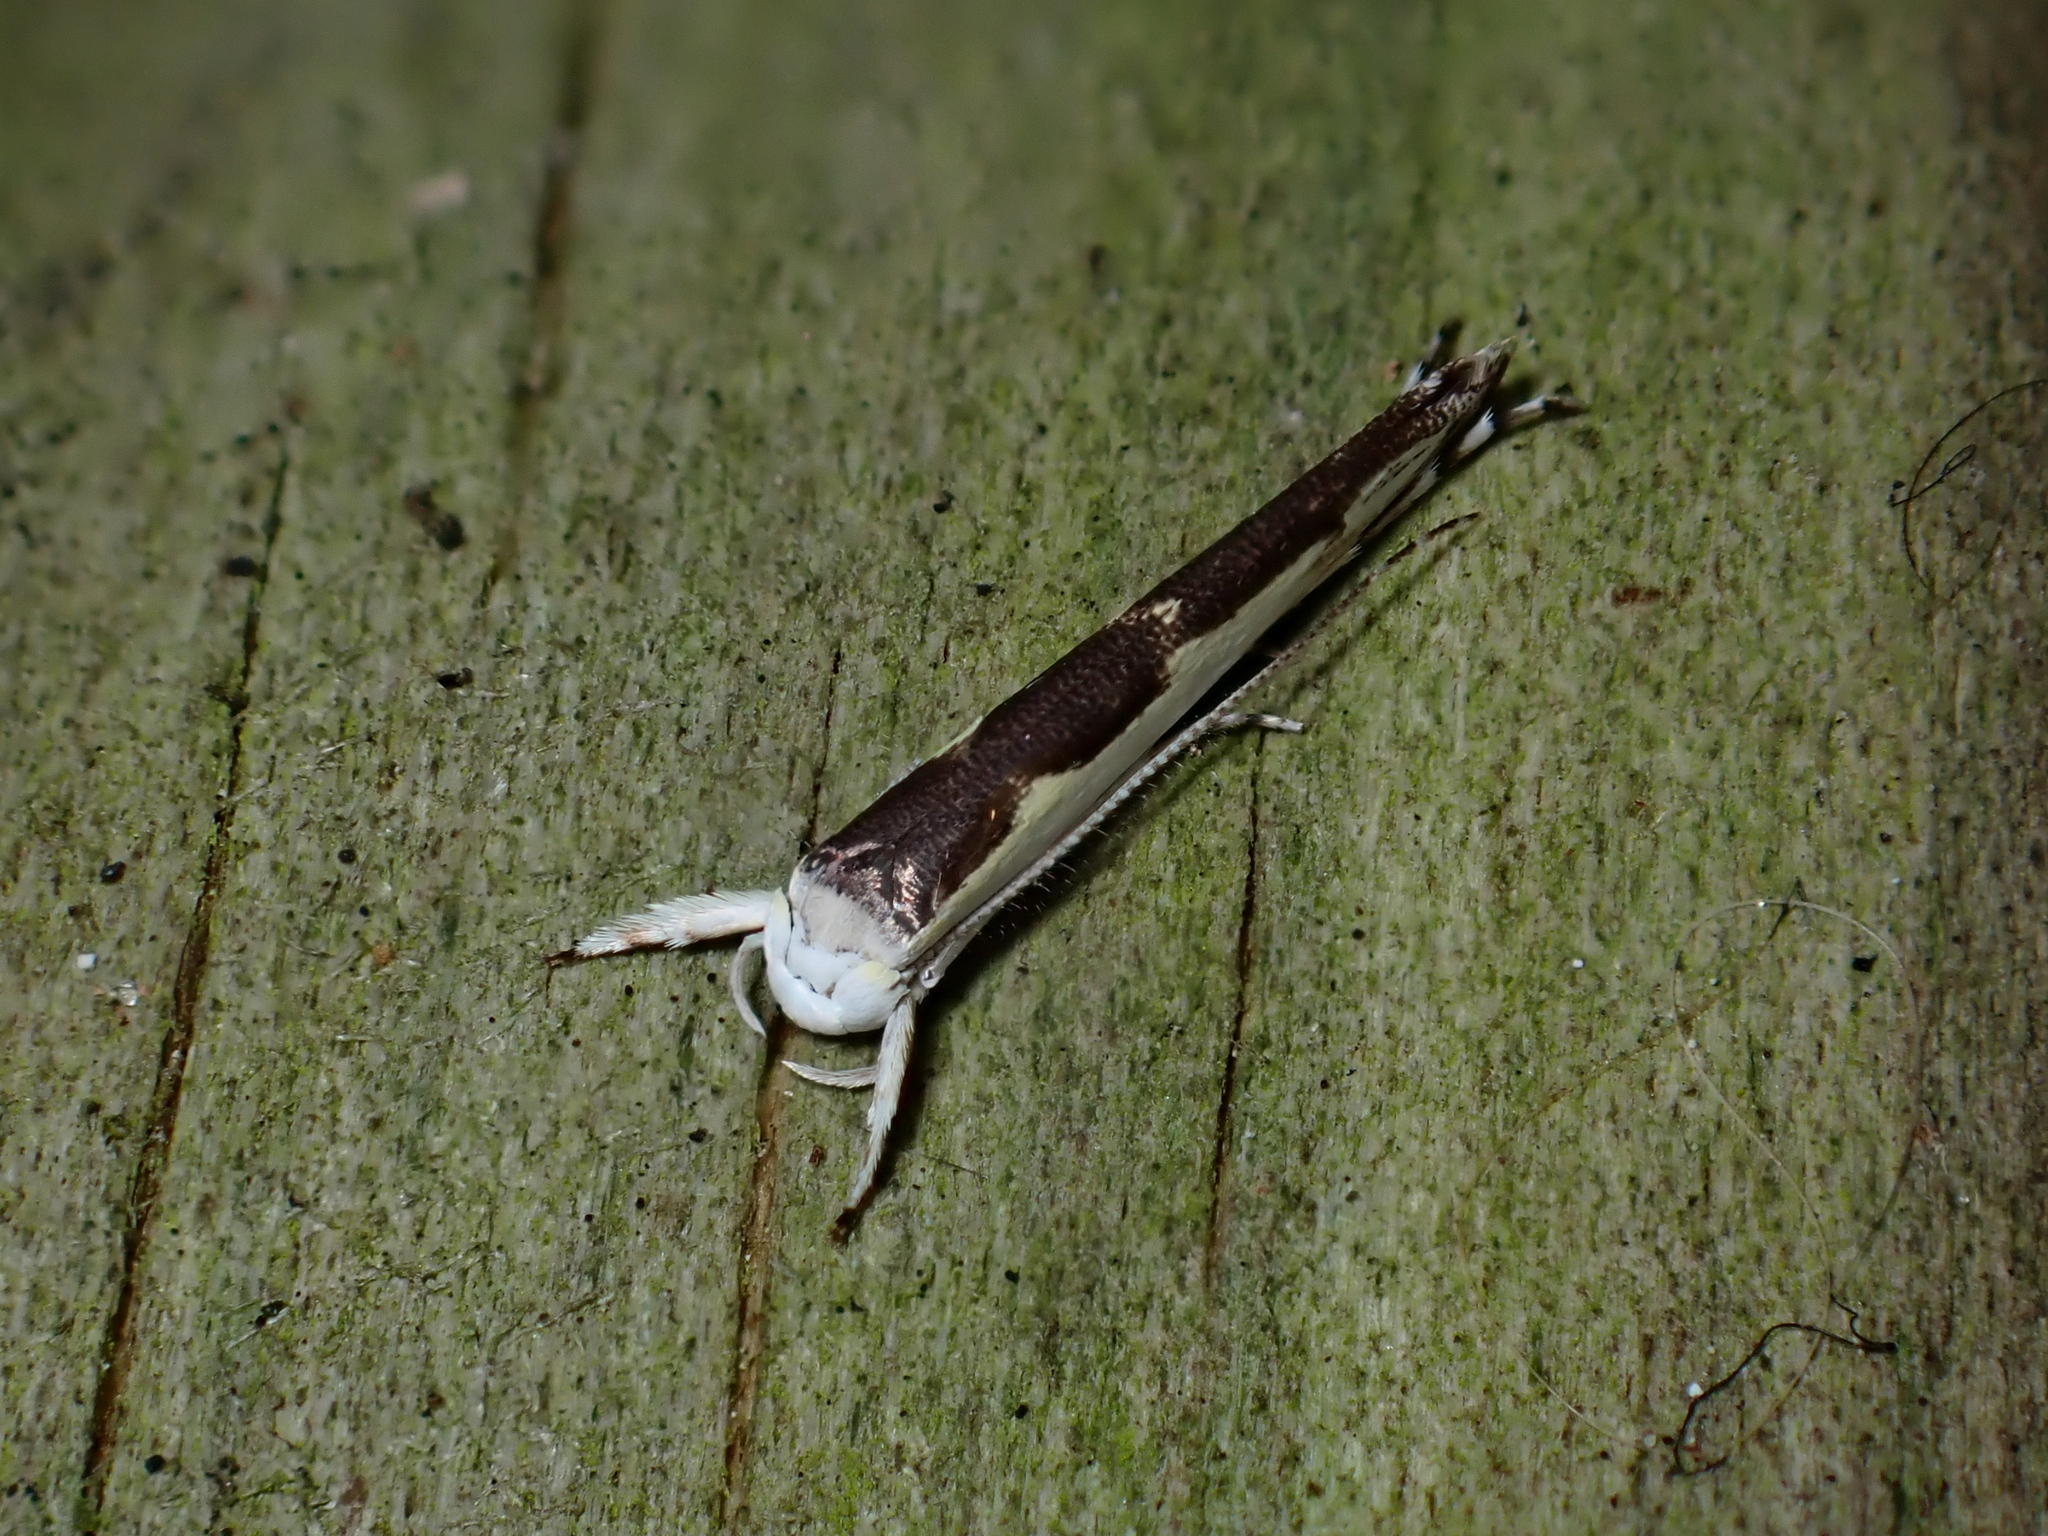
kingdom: Animalia
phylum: Arthropoda
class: Insecta
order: Lepidoptera
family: Roeslerstammiidae
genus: Vanicela
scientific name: Vanicela disjunctella
